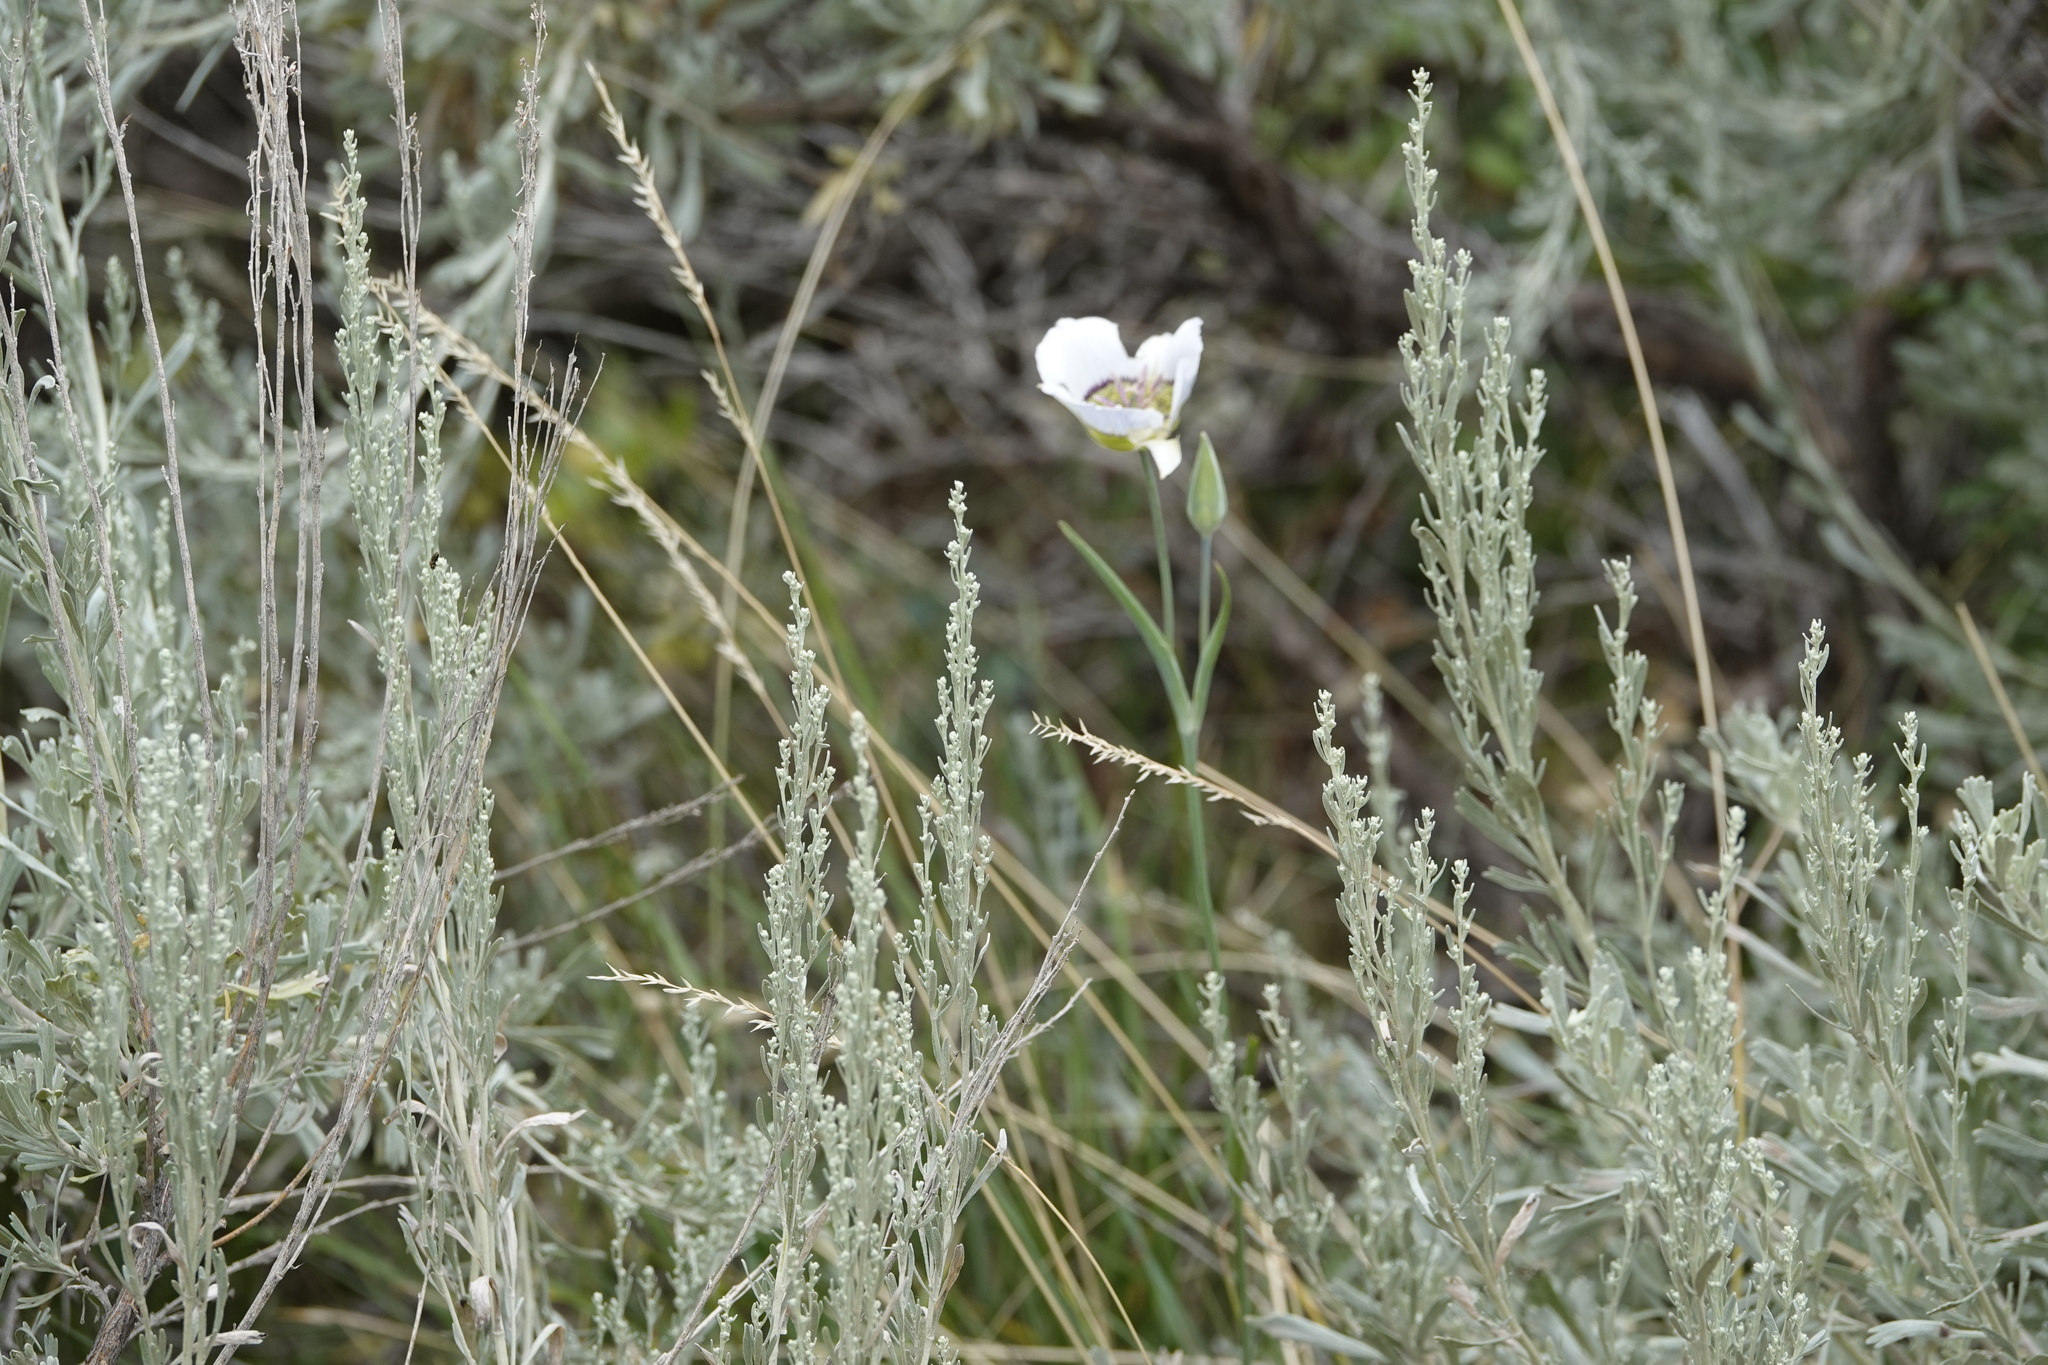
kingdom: Plantae
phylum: Tracheophyta
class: Liliopsida
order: Liliales
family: Liliaceae
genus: Calochortus
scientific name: Calochortus gunnisonii
